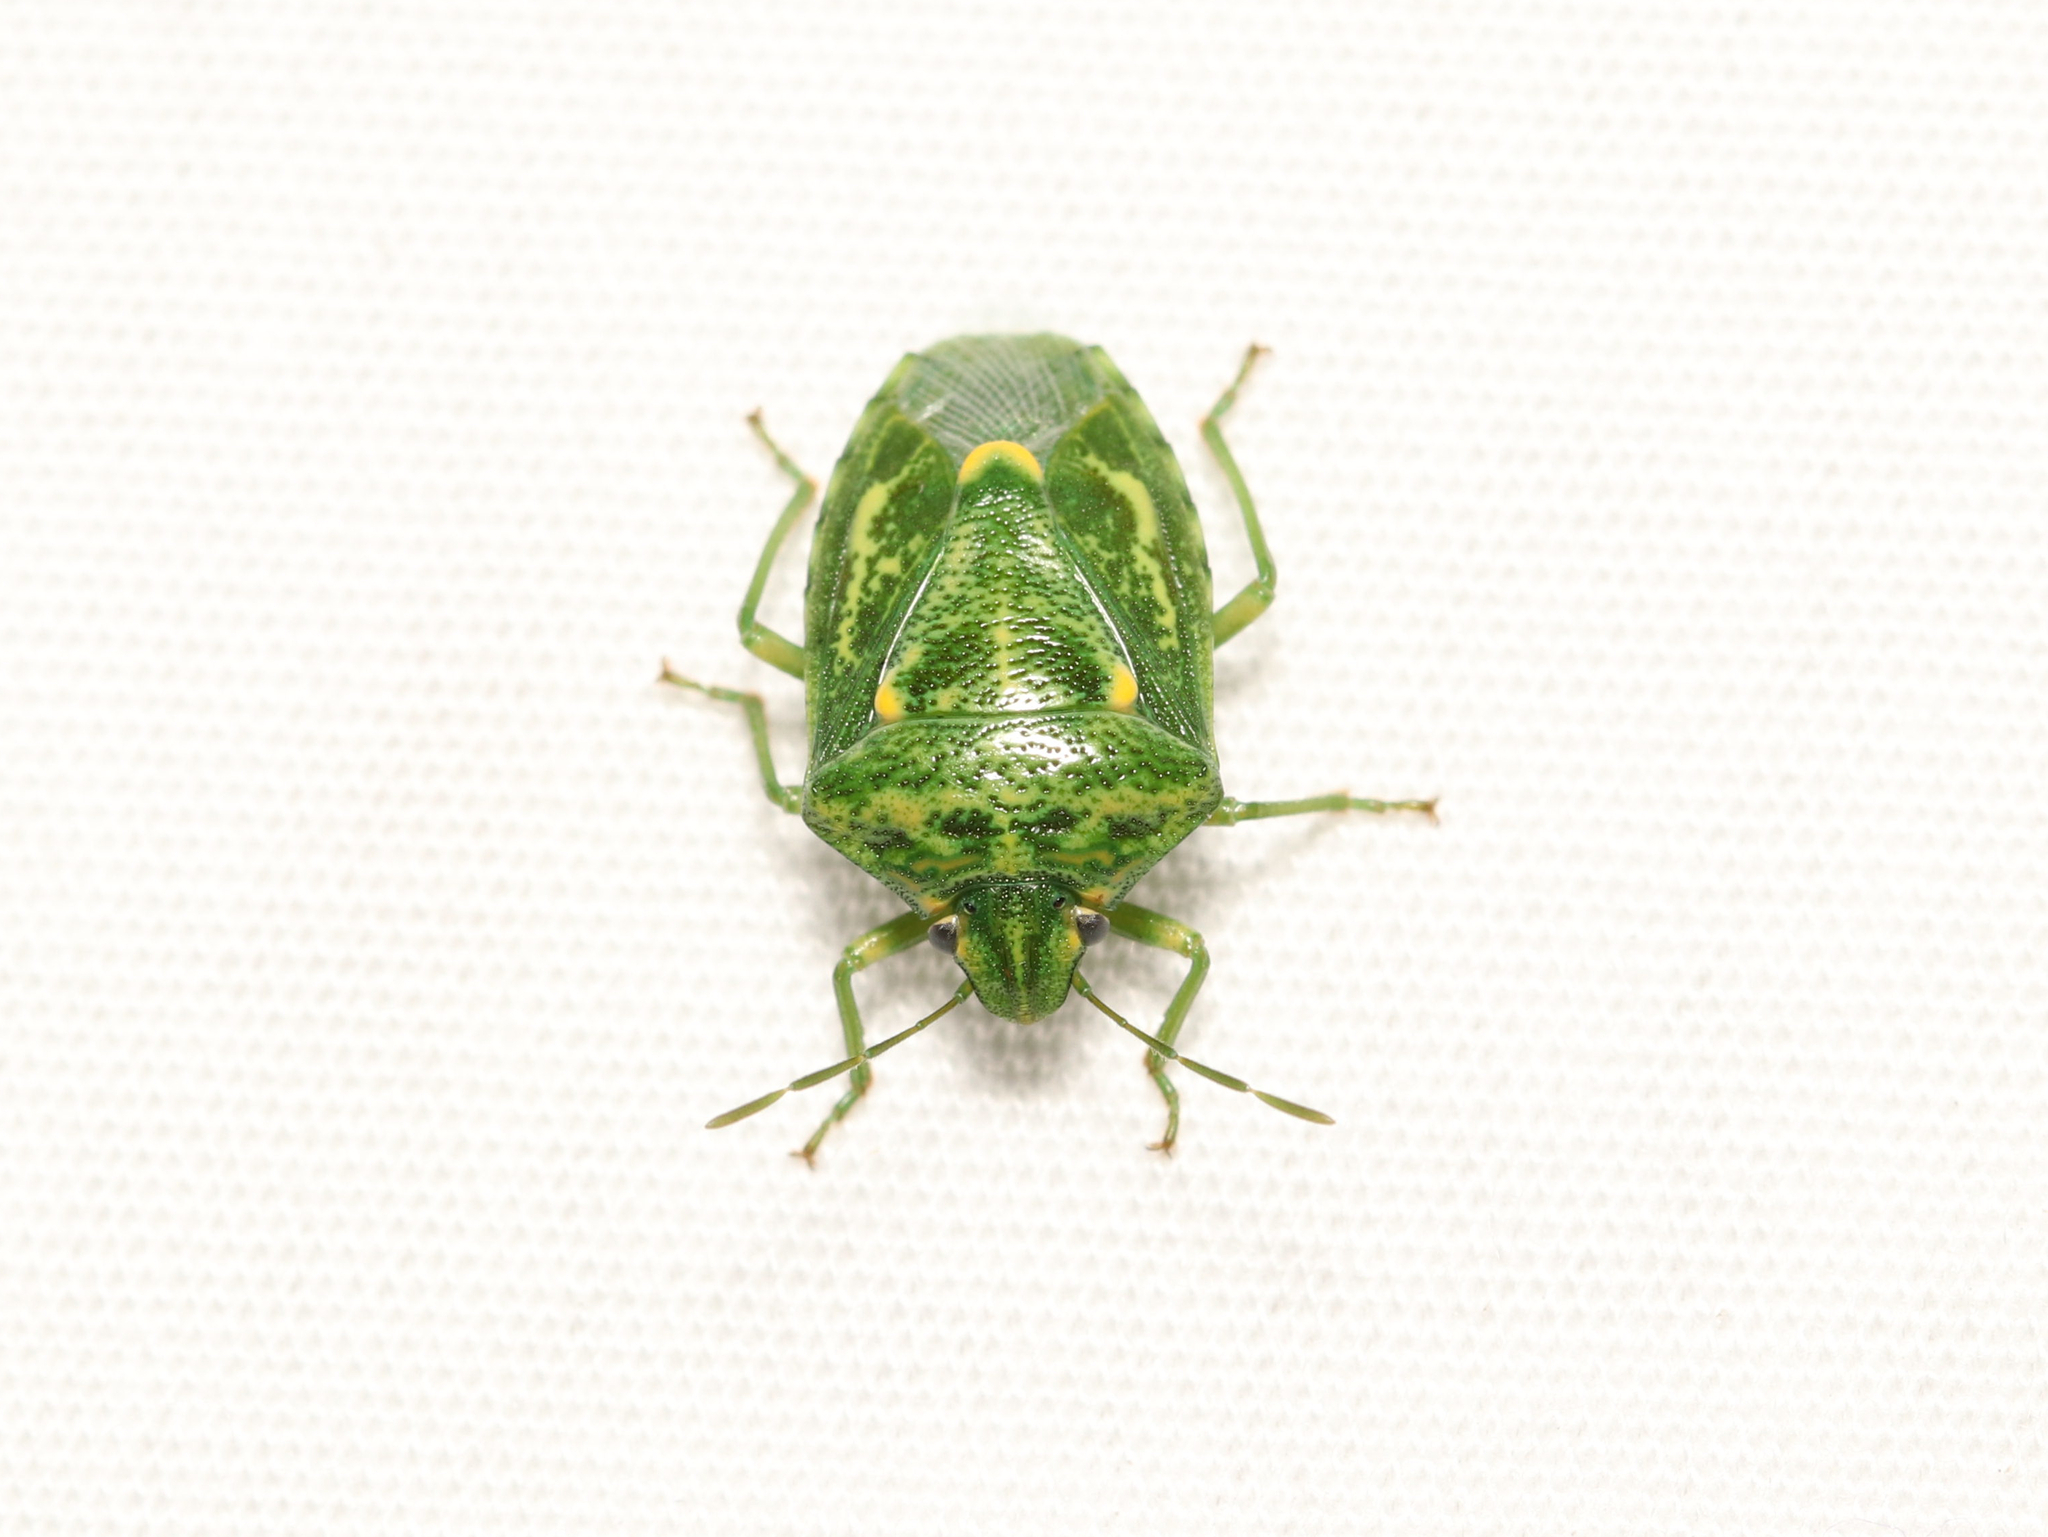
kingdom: Animalia
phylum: Arthropoda
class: Insecta
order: Hemiptera
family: Pentatomidae
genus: Banasa
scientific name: Banasa euchlora
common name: Cedar berry bug
